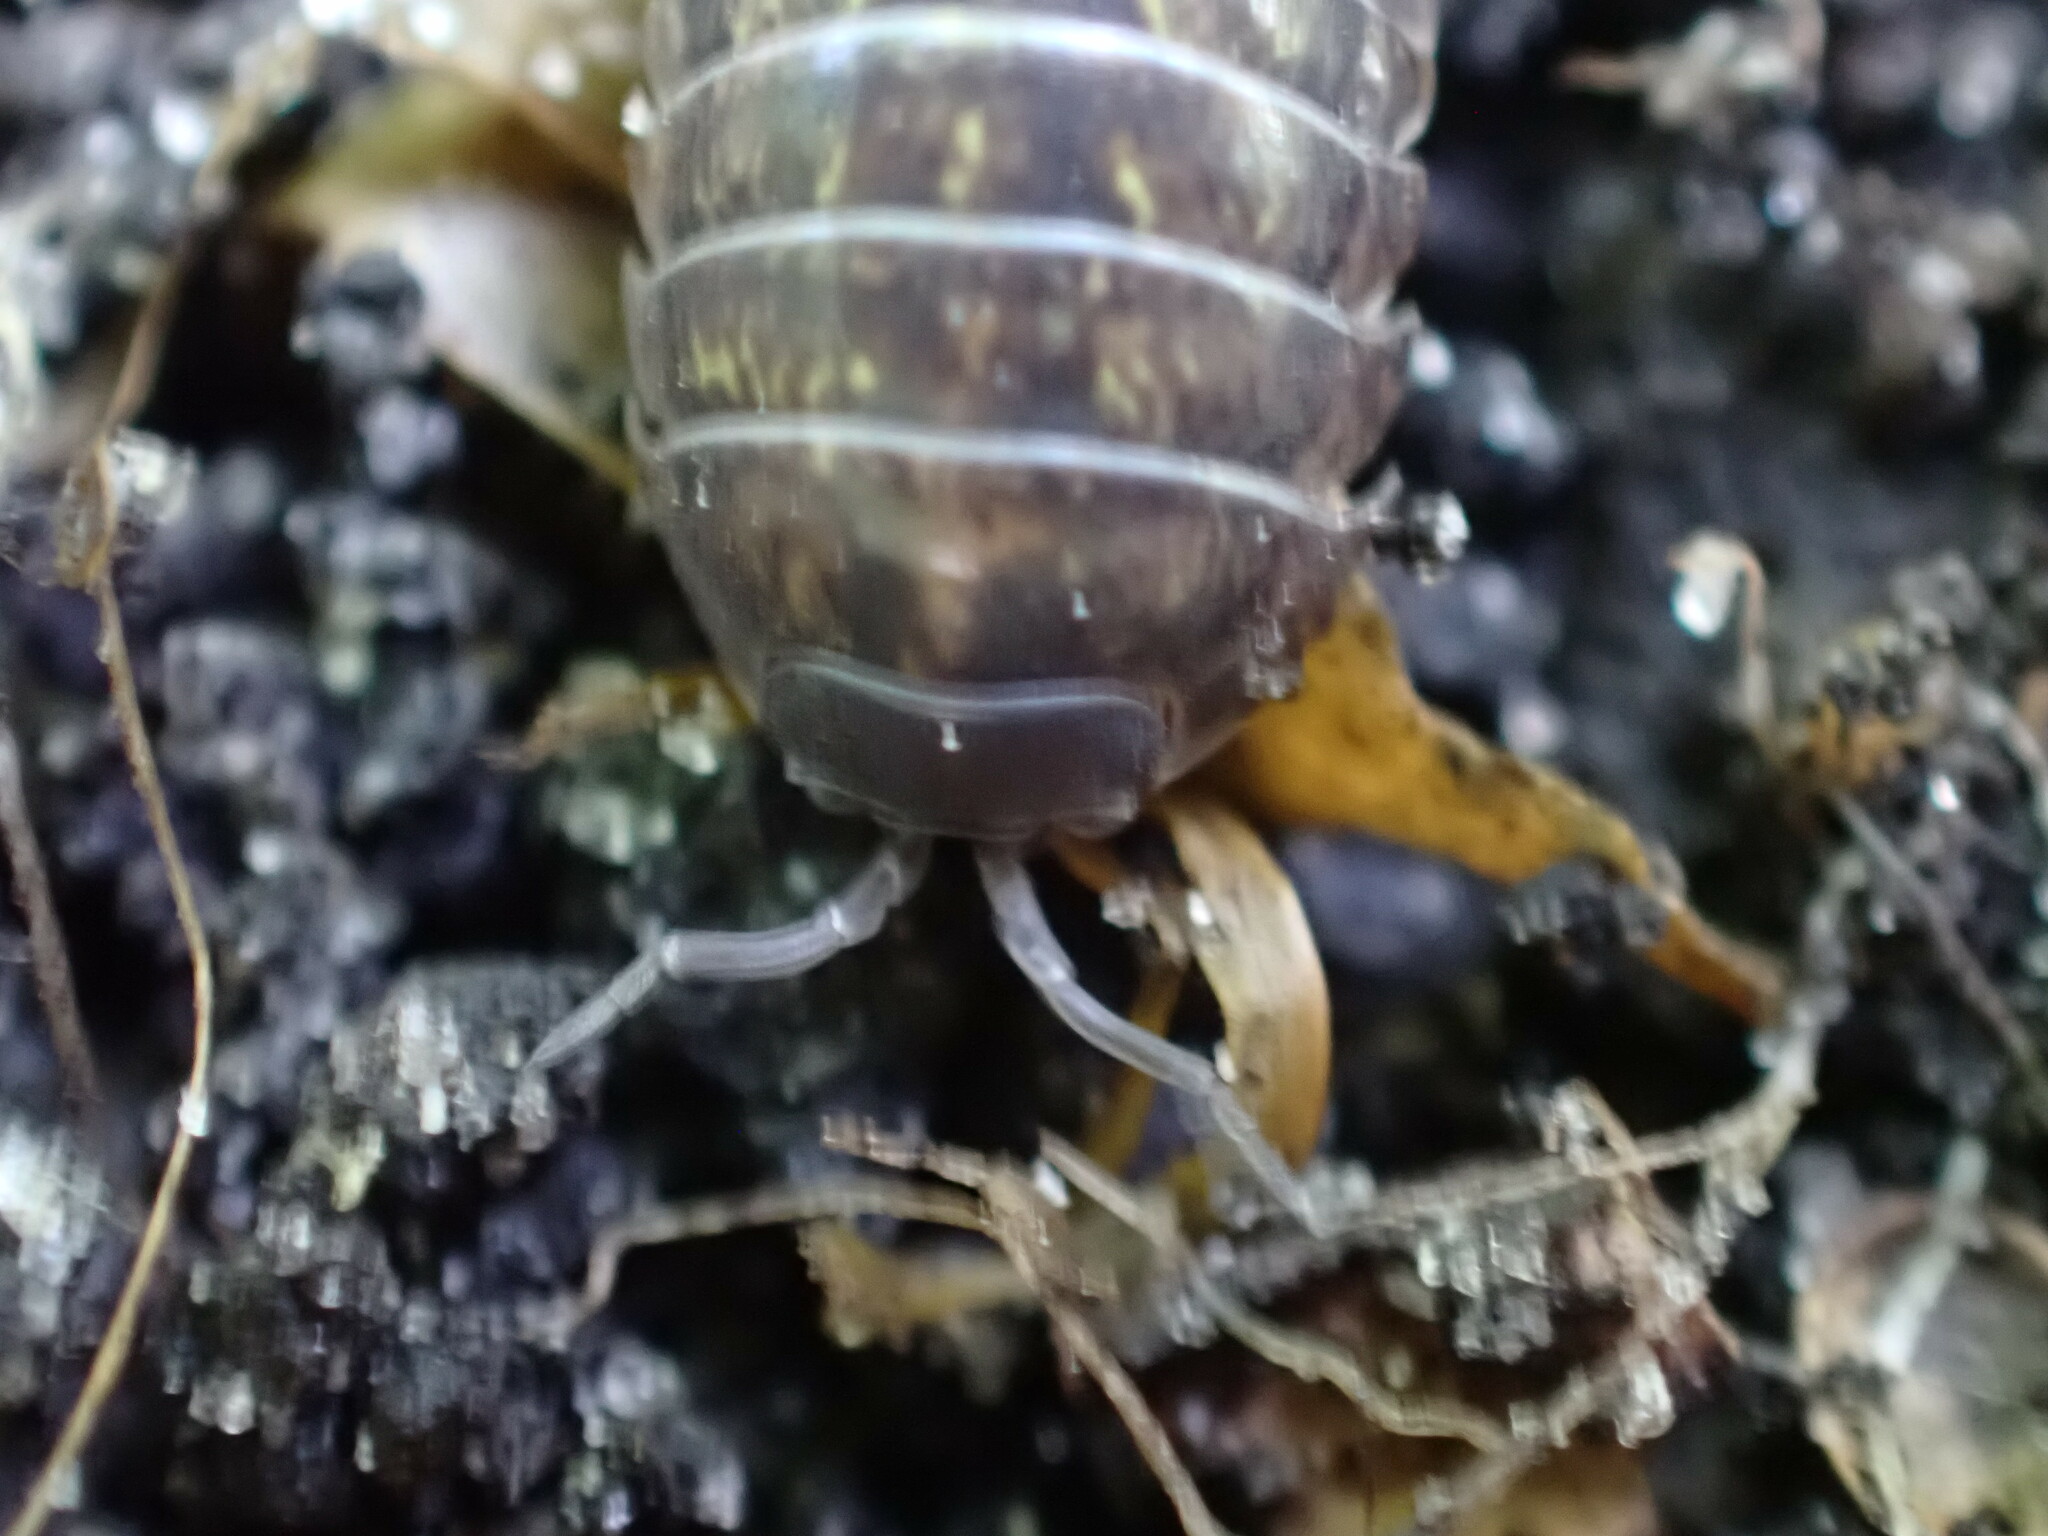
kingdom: Animalia
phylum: Arthropoda
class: Malacostraca
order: Isopoda
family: Armadillidiidae
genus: Armadillidium
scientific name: Armadillidium vulgare
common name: Common pill woodlouse
